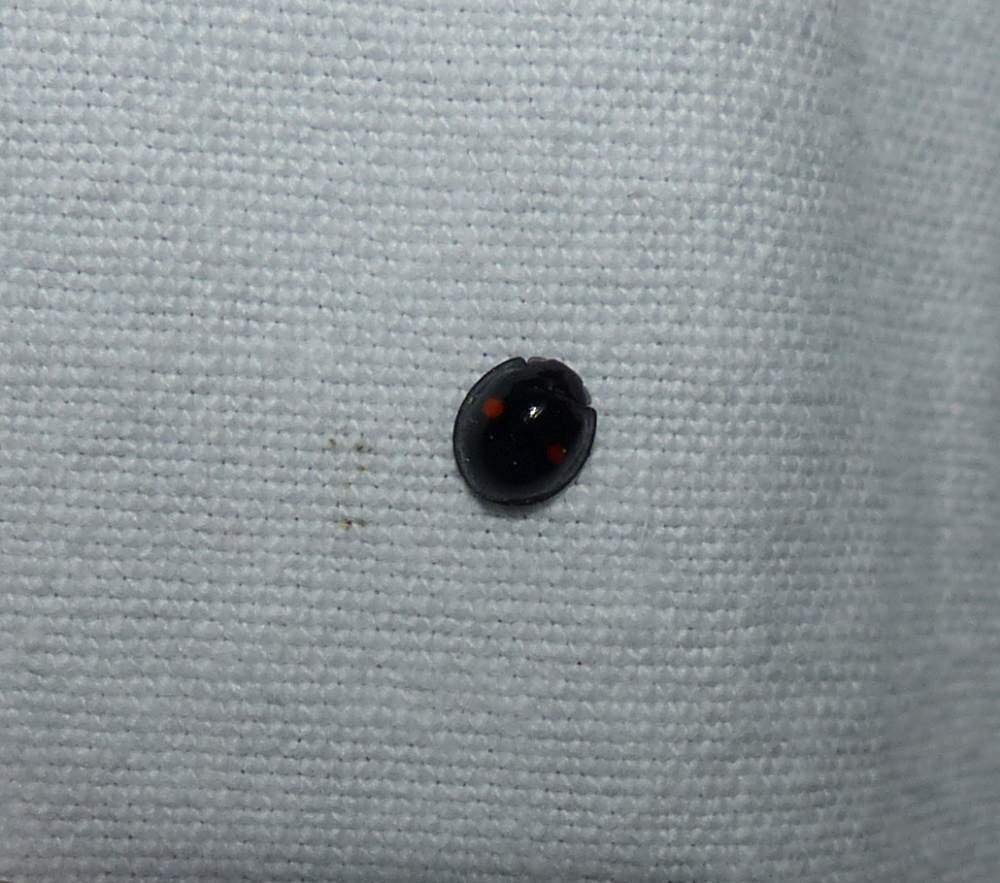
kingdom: Animalia
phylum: Arthropoda
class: Insecta
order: Coleoptera
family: Coccinellidae
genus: Chilocorus
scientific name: Chilocorus stigma
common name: Twicestabbed lady beetle
